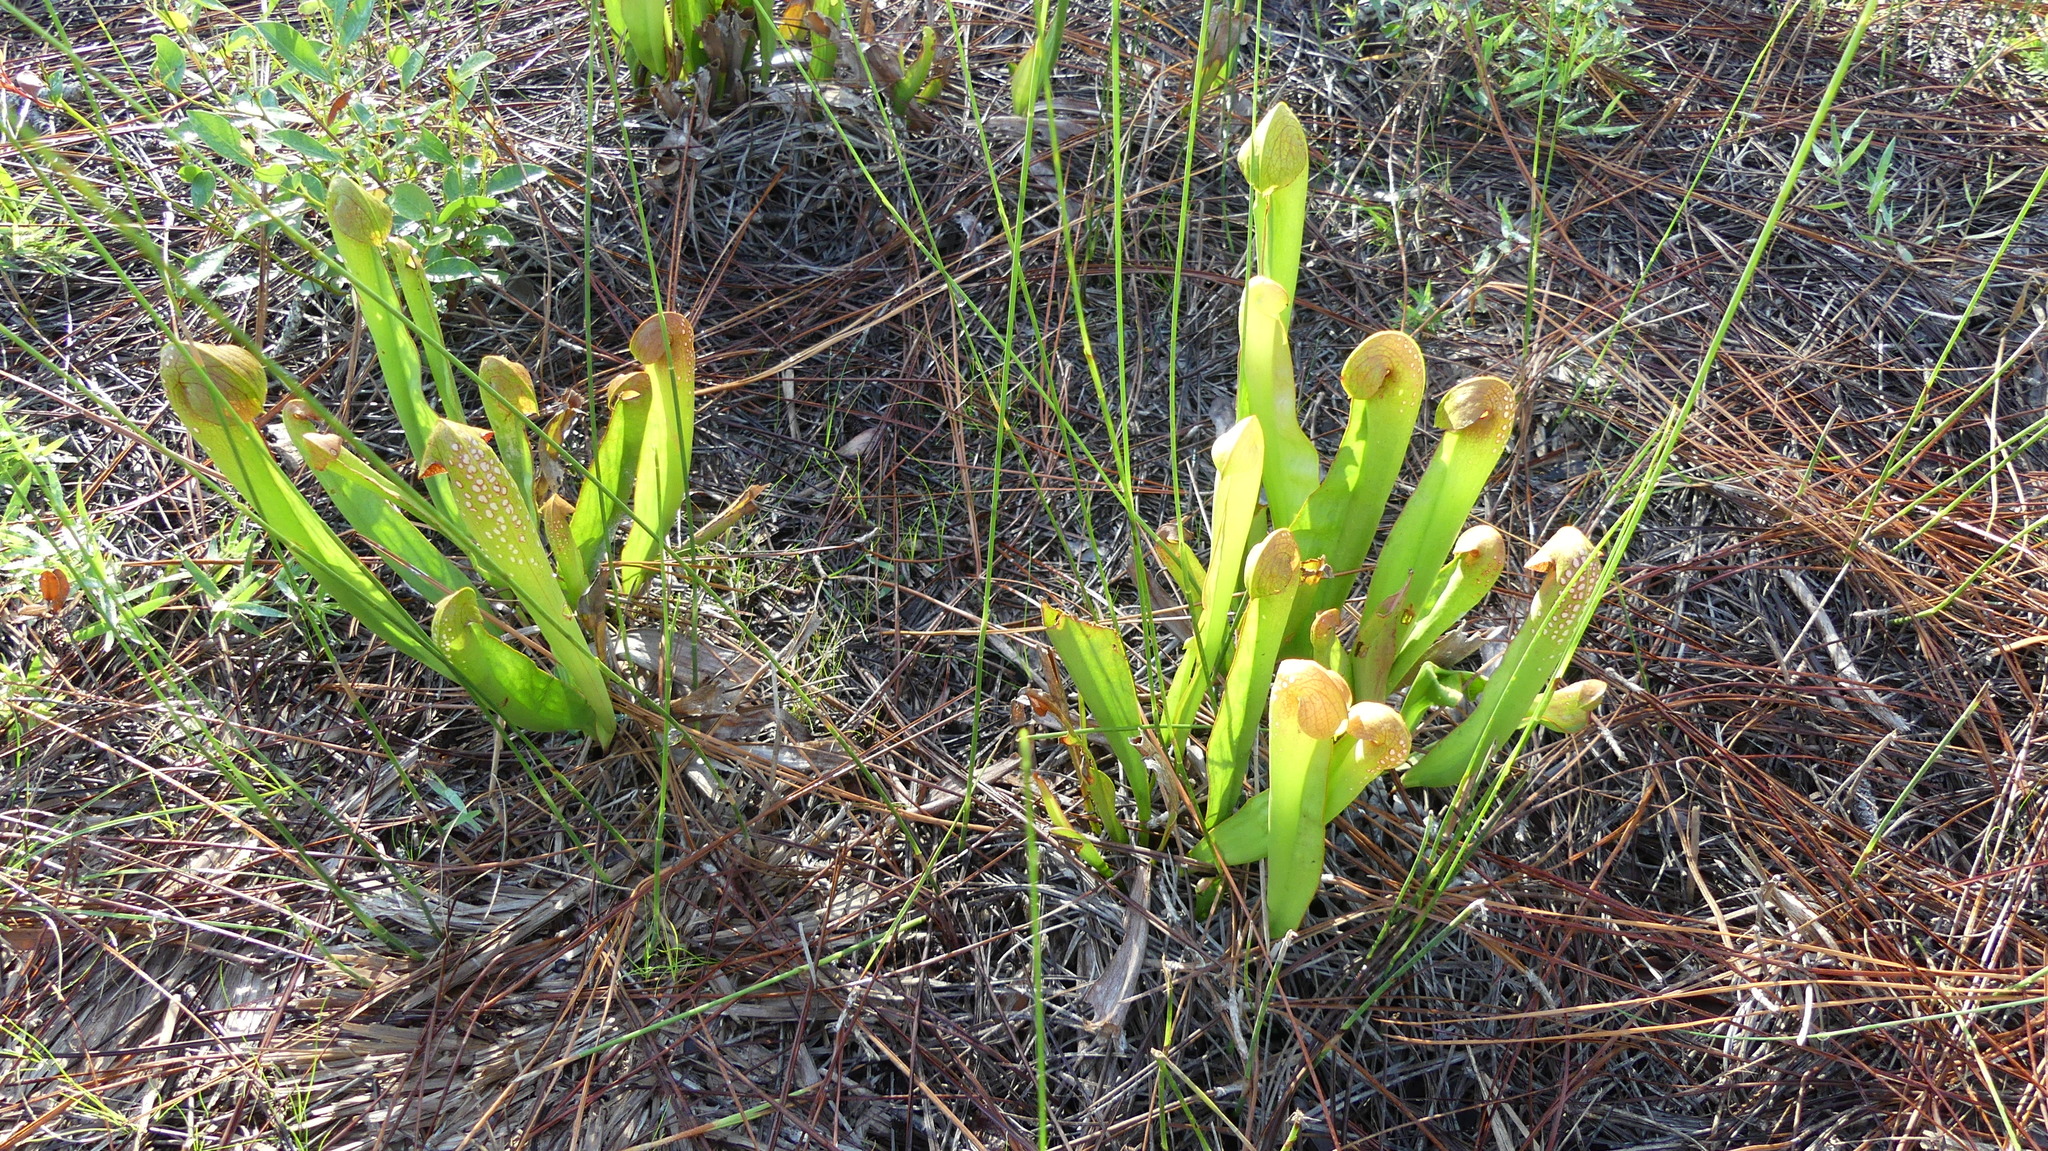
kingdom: Plantae
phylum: Tracheophyta
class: Magnoliopsida
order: Ericales
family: Sarraceniaceae
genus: Sarracenia
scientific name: Sarracenia minor
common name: Rainhat-trumpet
